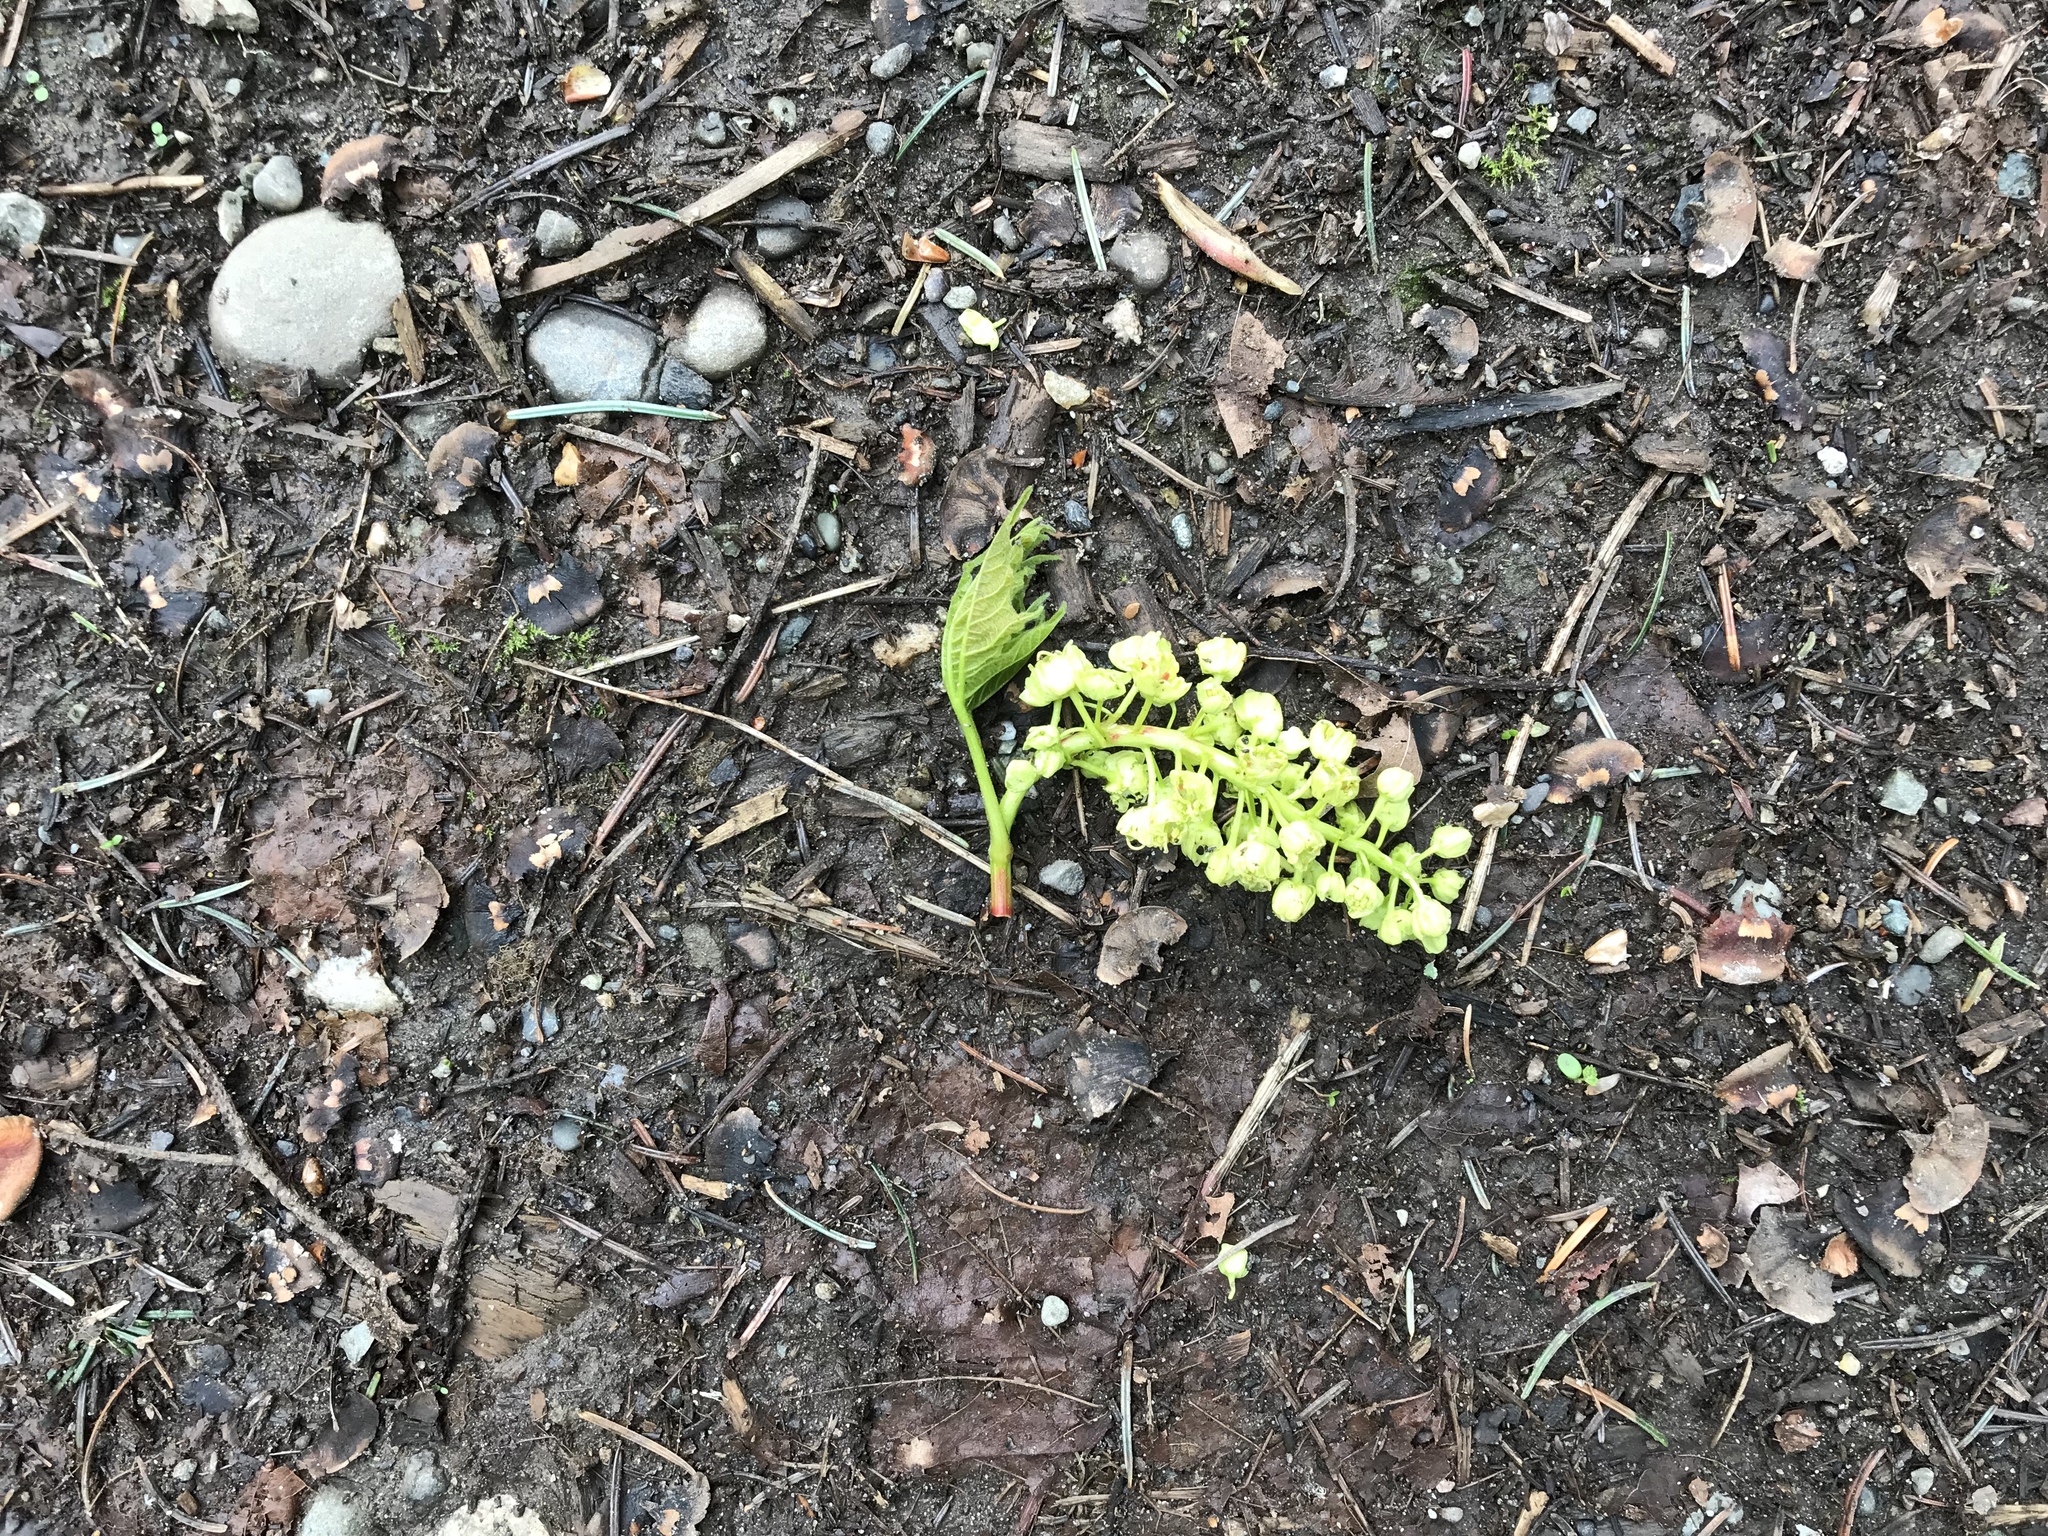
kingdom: Plantae
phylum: Tracheophyta
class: Magnoliopsida
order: Sapindales
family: Sapindaceae
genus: Acer
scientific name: Acer macrophyllum
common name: Oregon maple
